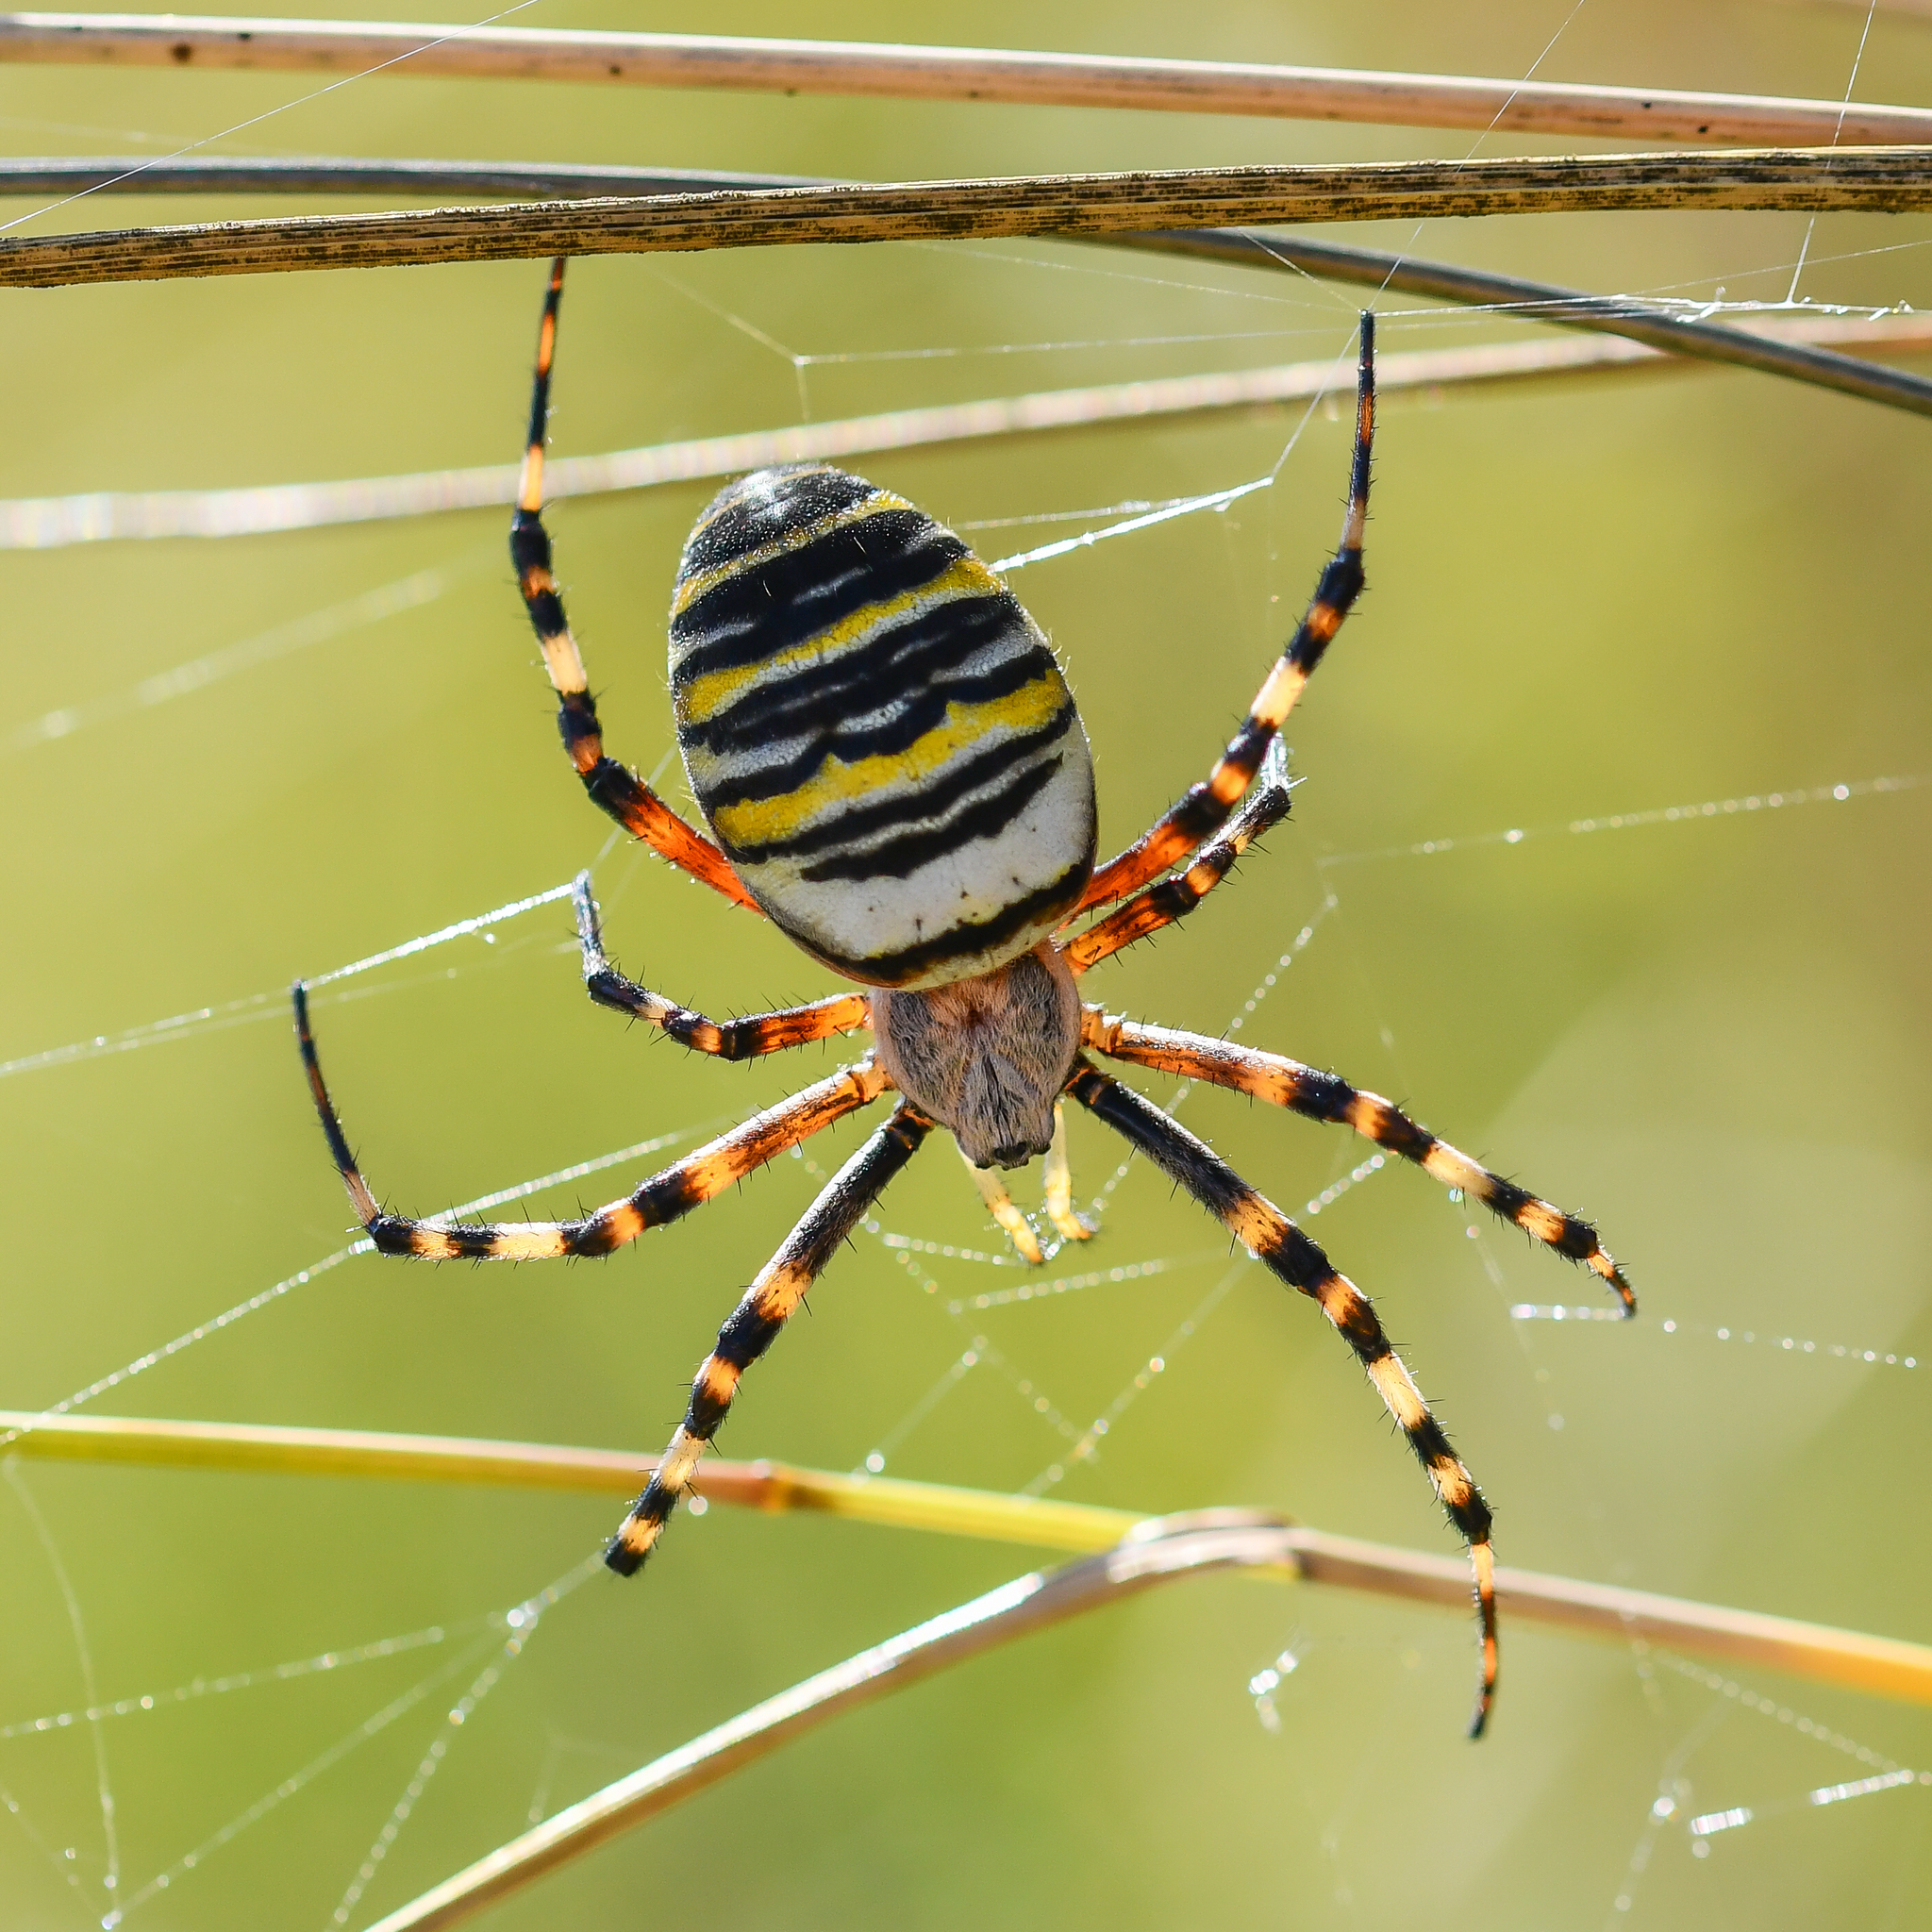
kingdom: Animalia
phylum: Arthropoda
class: Arachnida
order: Araneae
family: Araneidae
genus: Argiope
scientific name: Argiope bruennichi
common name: Wasp spider
